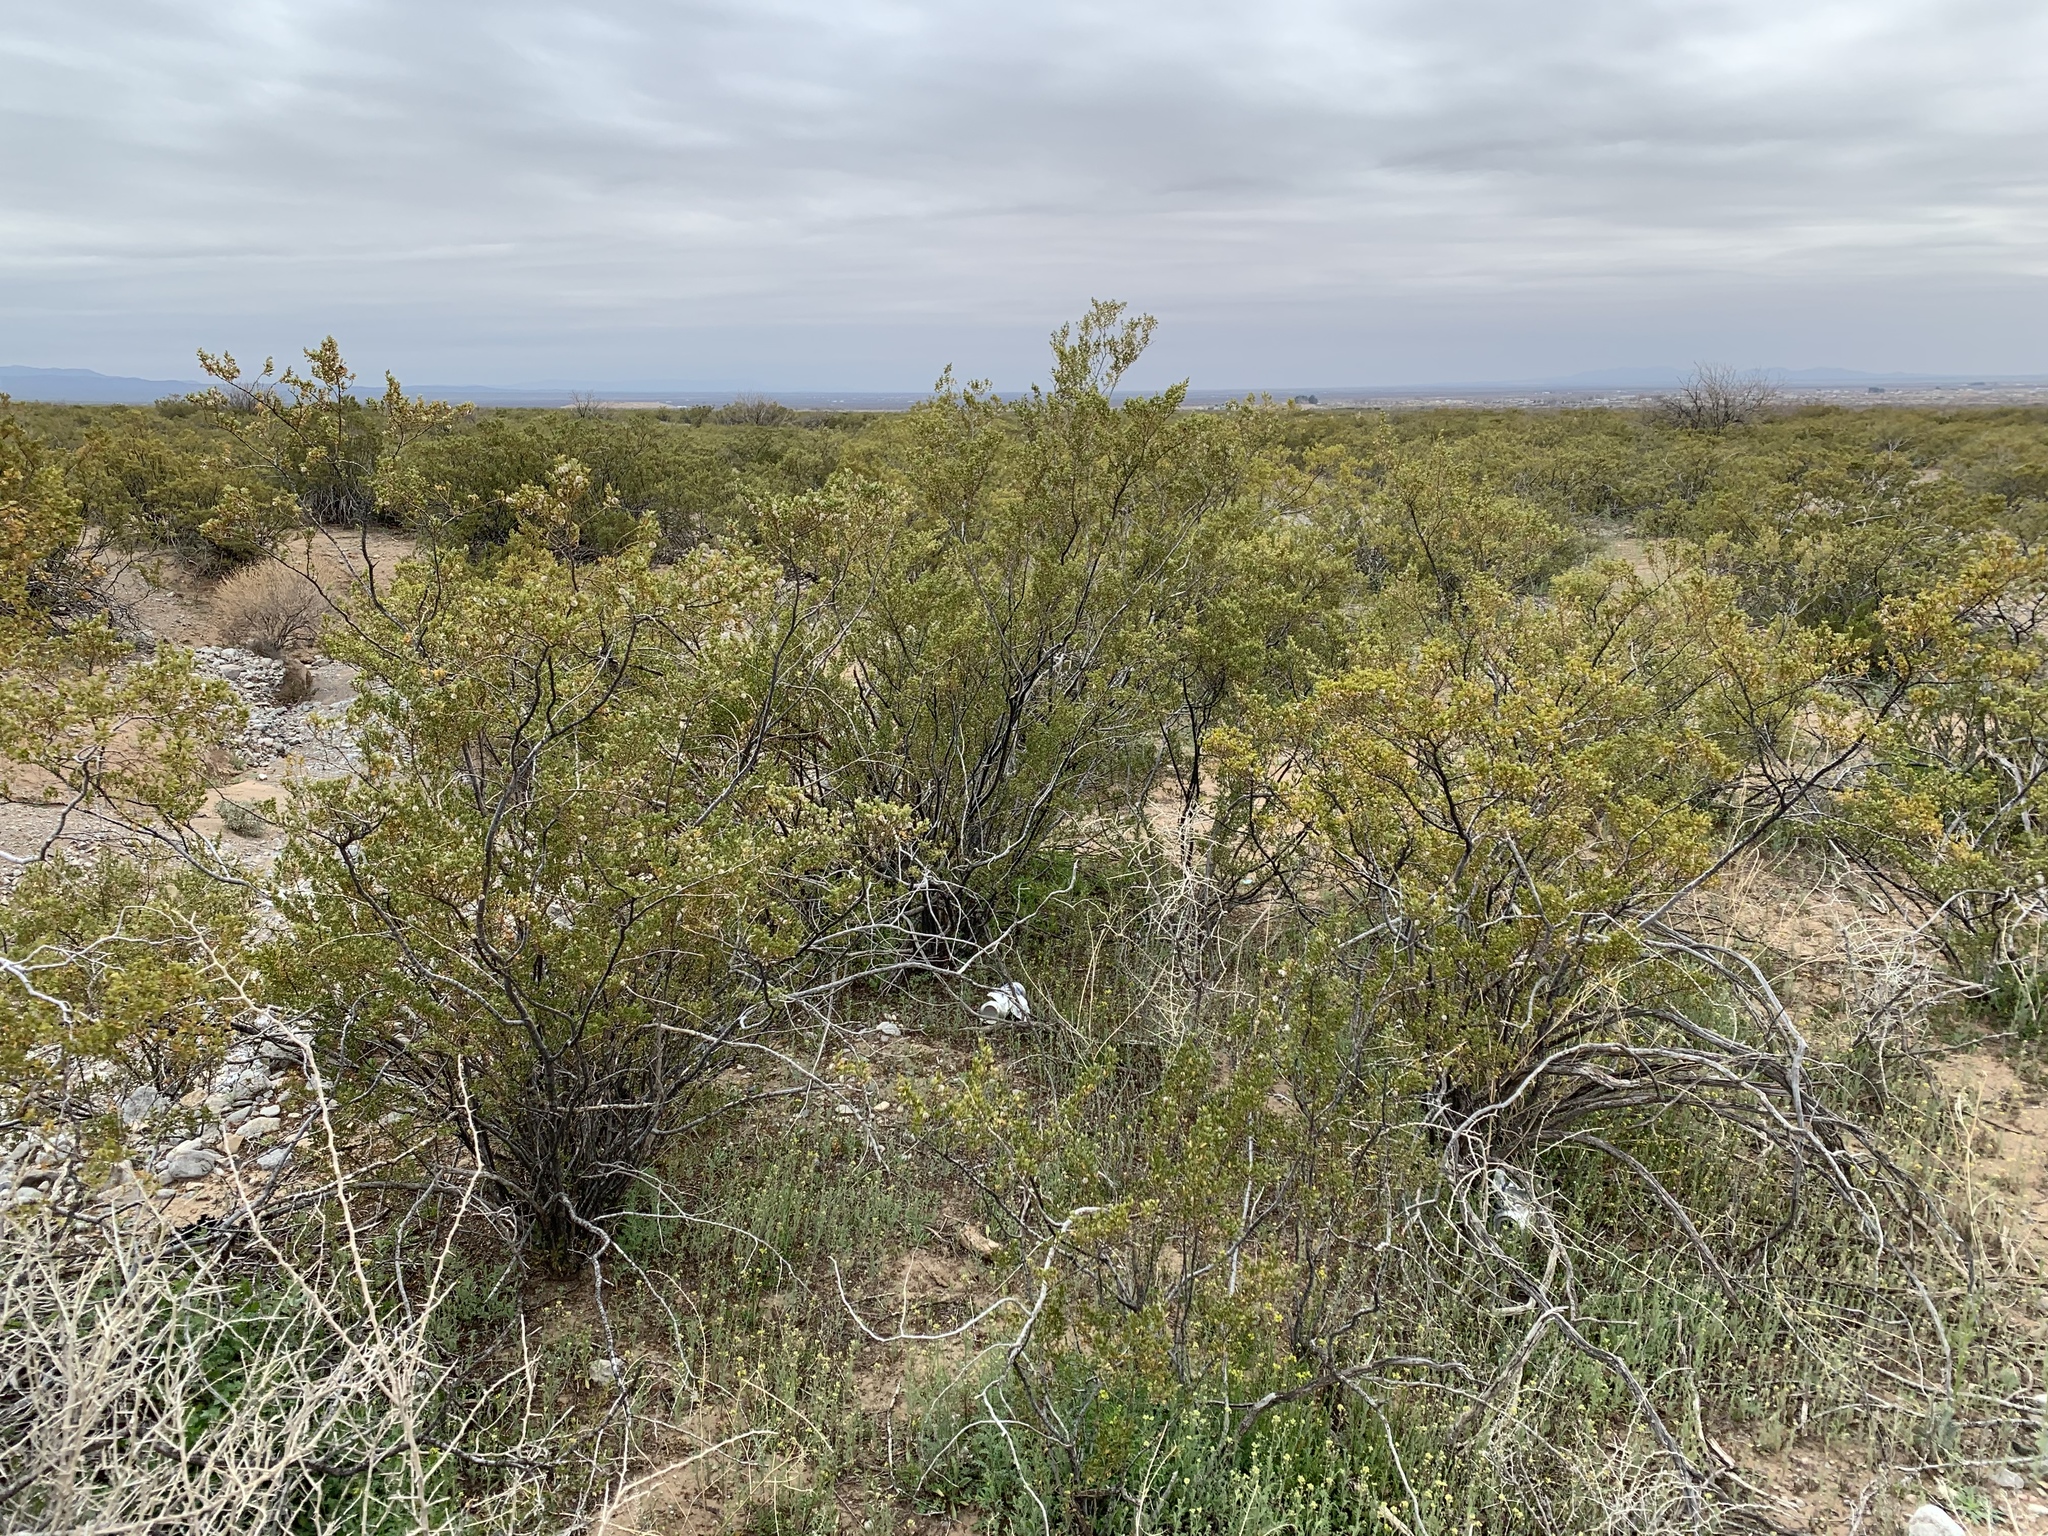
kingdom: Plantae
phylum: Tracheophyta
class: Magnoliopsida
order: Zygophyllales
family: Zygophyllaceae
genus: Larrea
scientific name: Larrea tridentata
